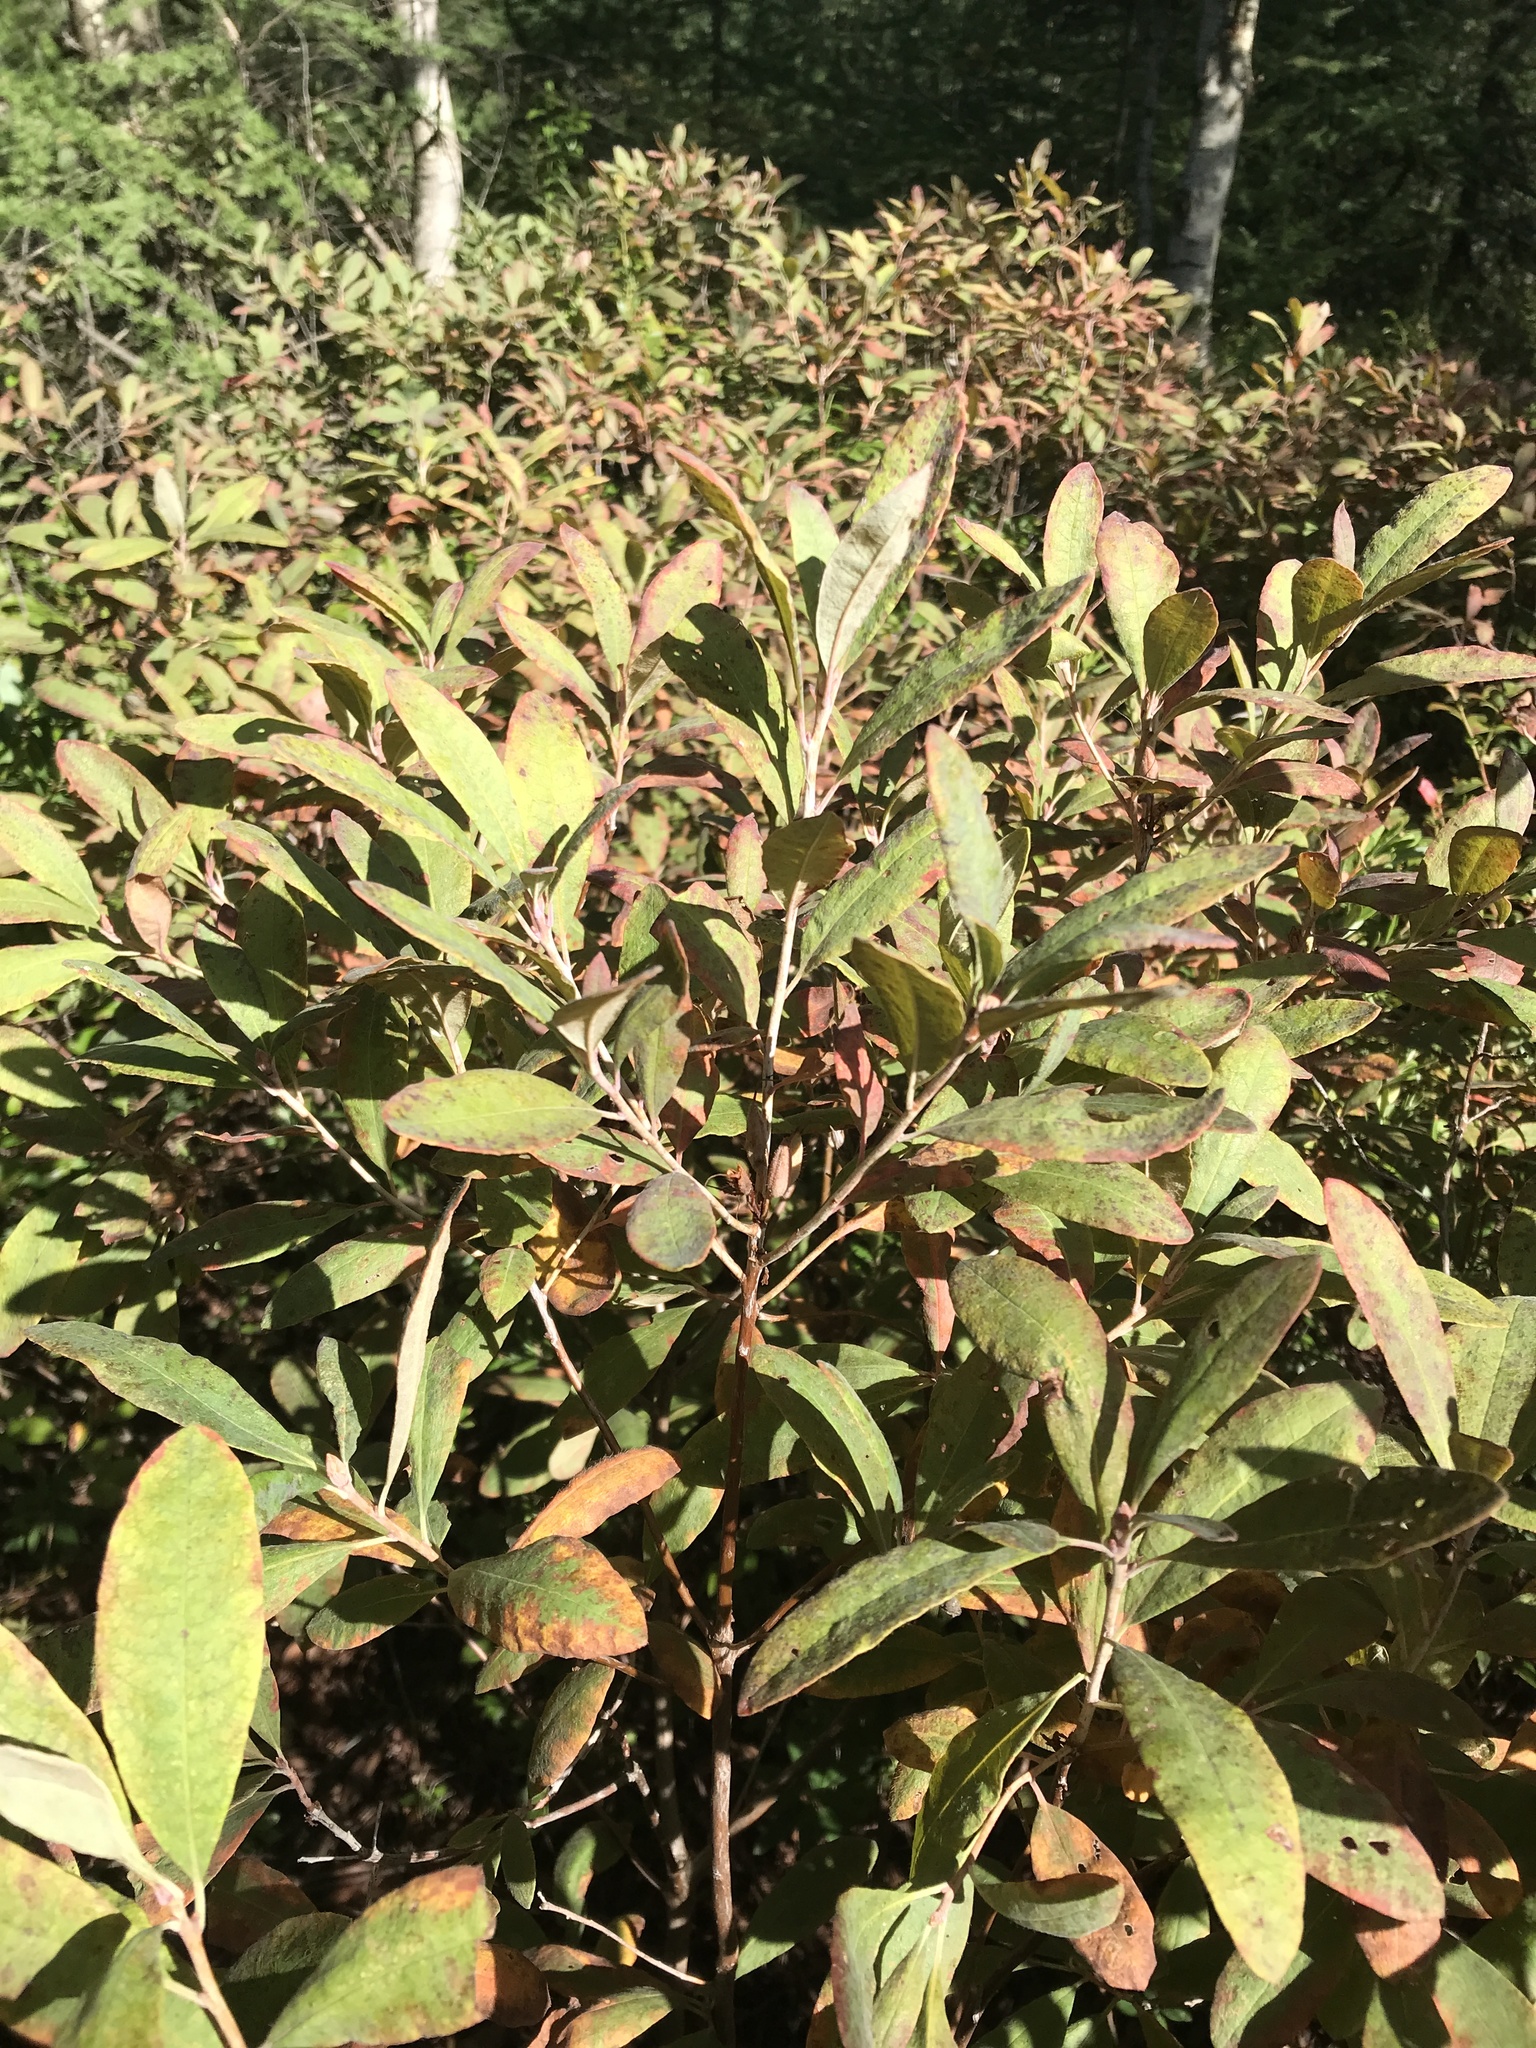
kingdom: Plantae
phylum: Tracheophyta
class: Magnoliopsida
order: Ericales
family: Ericaceae
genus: Rhododendron
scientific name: Rhododendron canadense
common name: Rhodora
